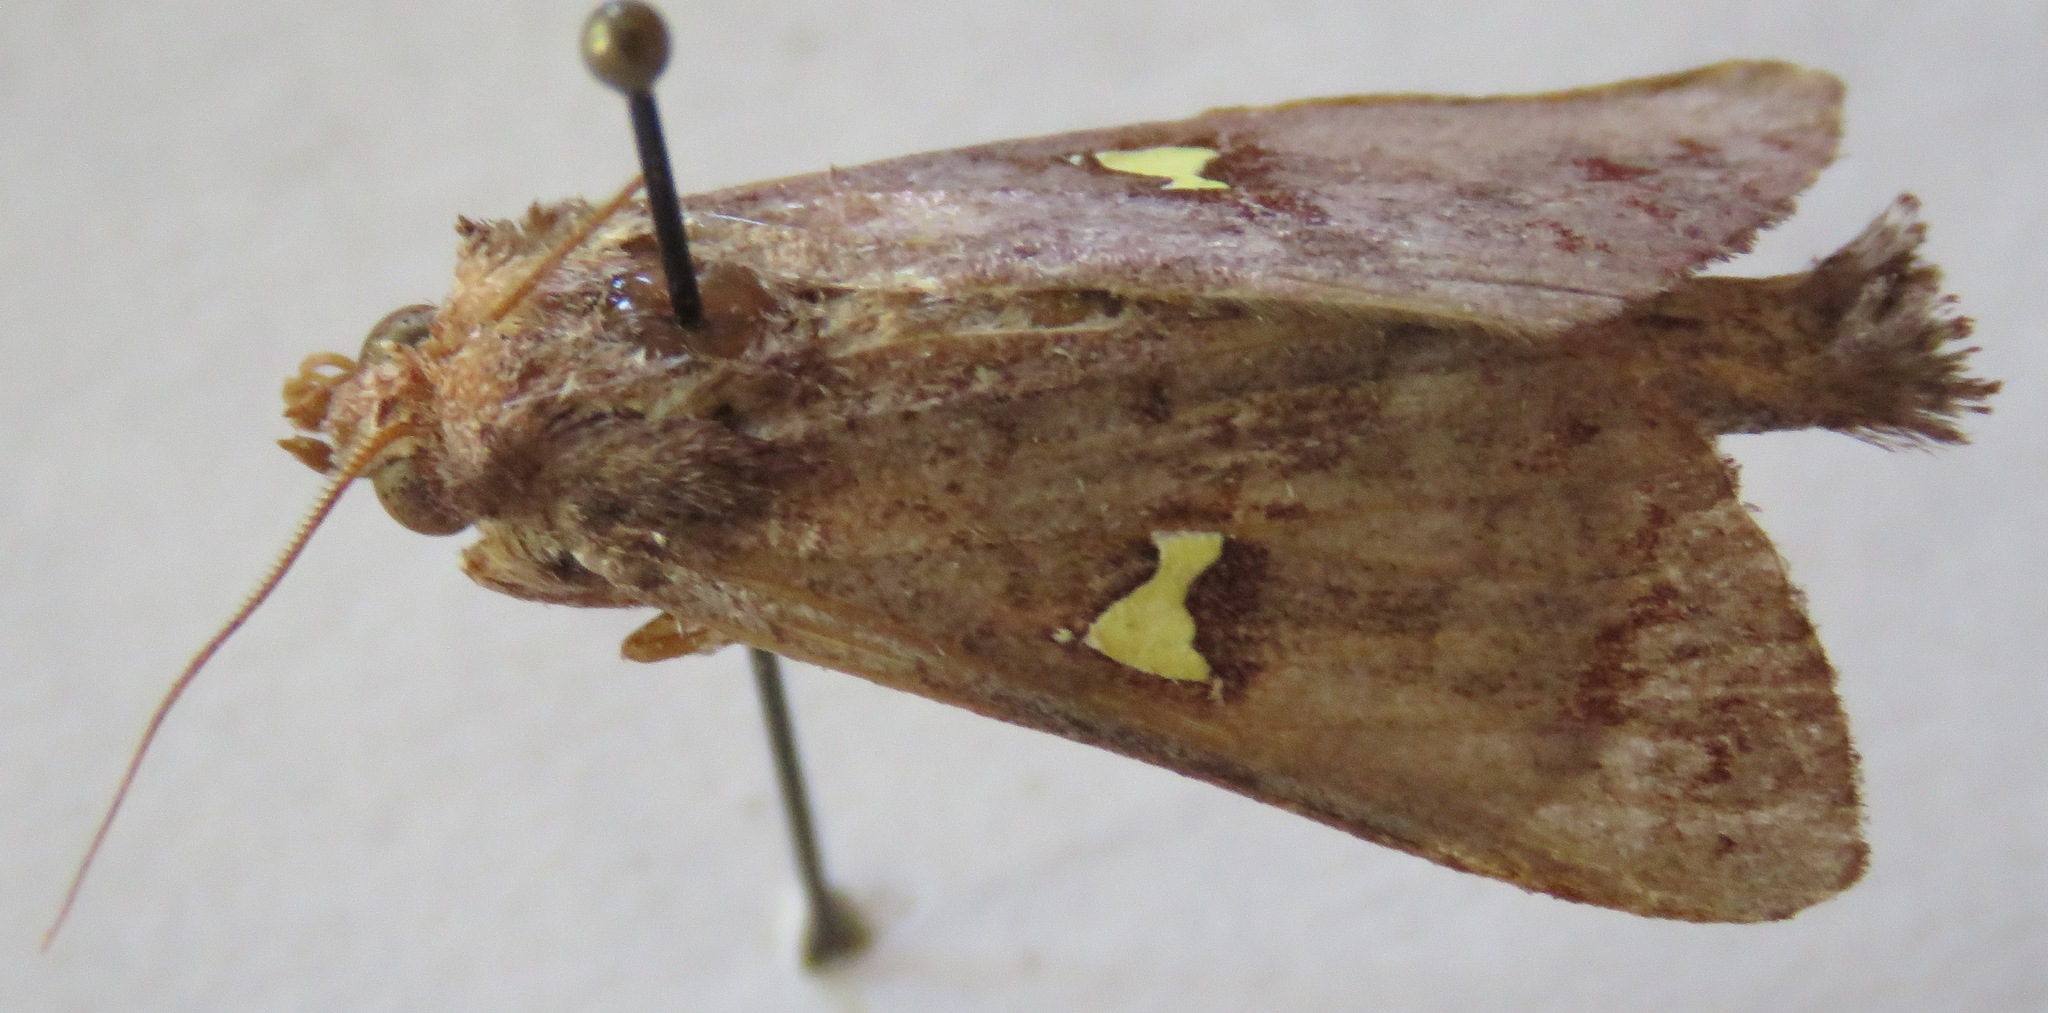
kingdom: Animalia
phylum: Arthropoda
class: Insecta
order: Lepidoptera
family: Notodontidae
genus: Sericochroa
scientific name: Sericochroa flavodiscata
